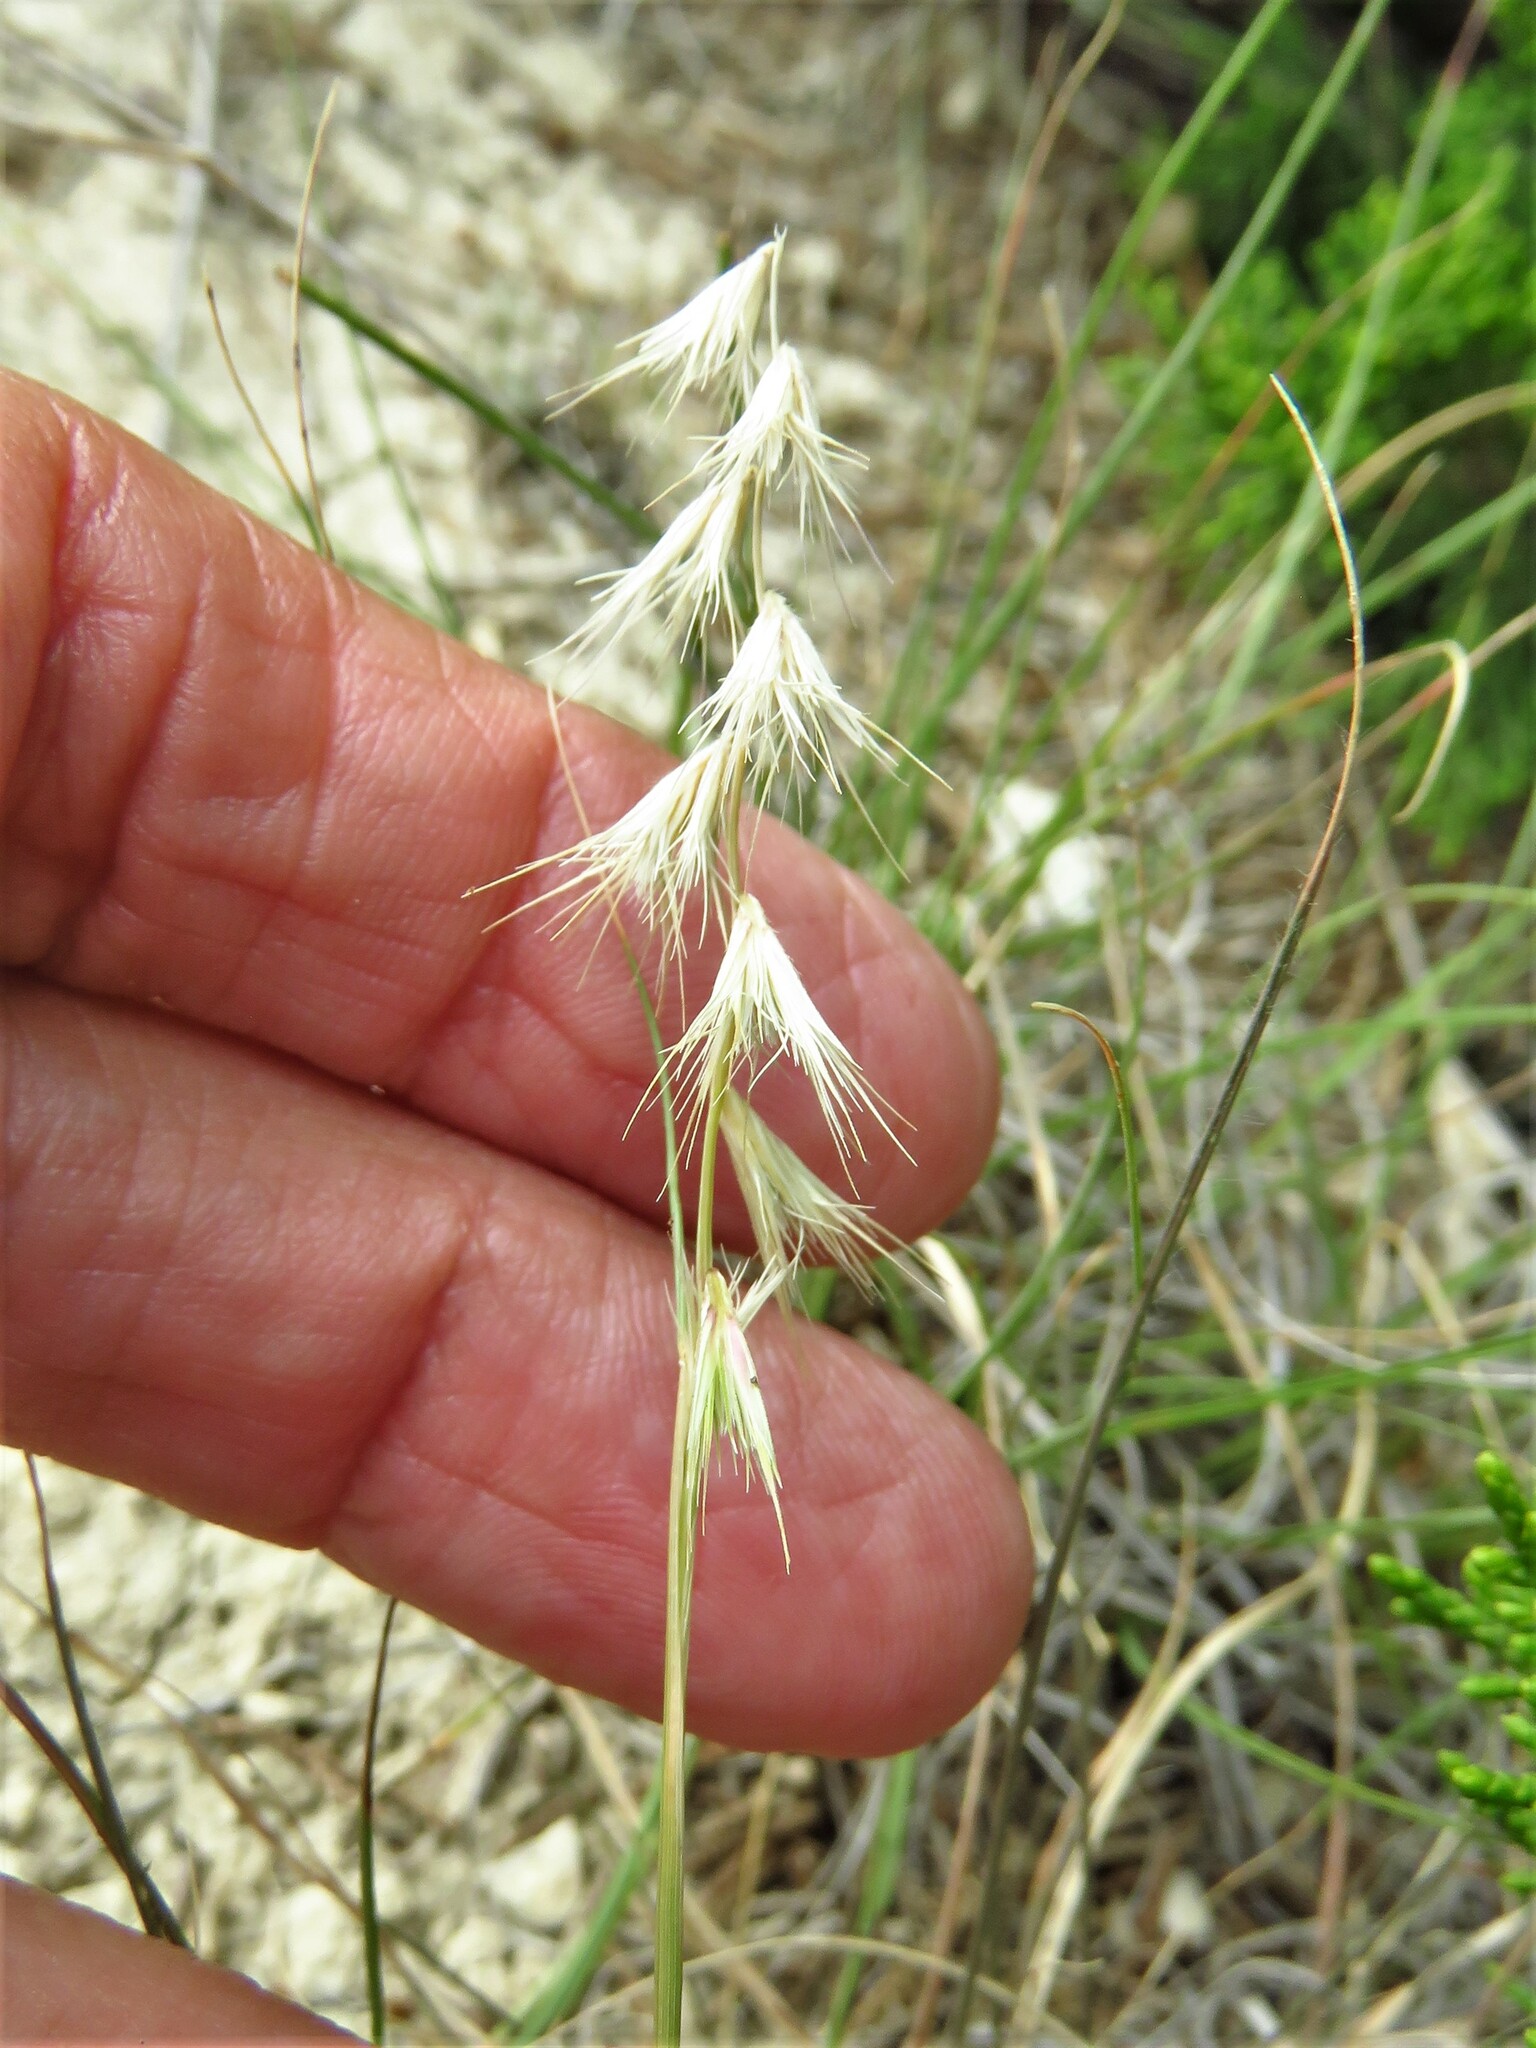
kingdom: Plantae
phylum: Tracheophyta
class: Liliopsida
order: Poales
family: Poaceae
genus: Bouteloua
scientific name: Bouteloua rigidiseta
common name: Texas grama
